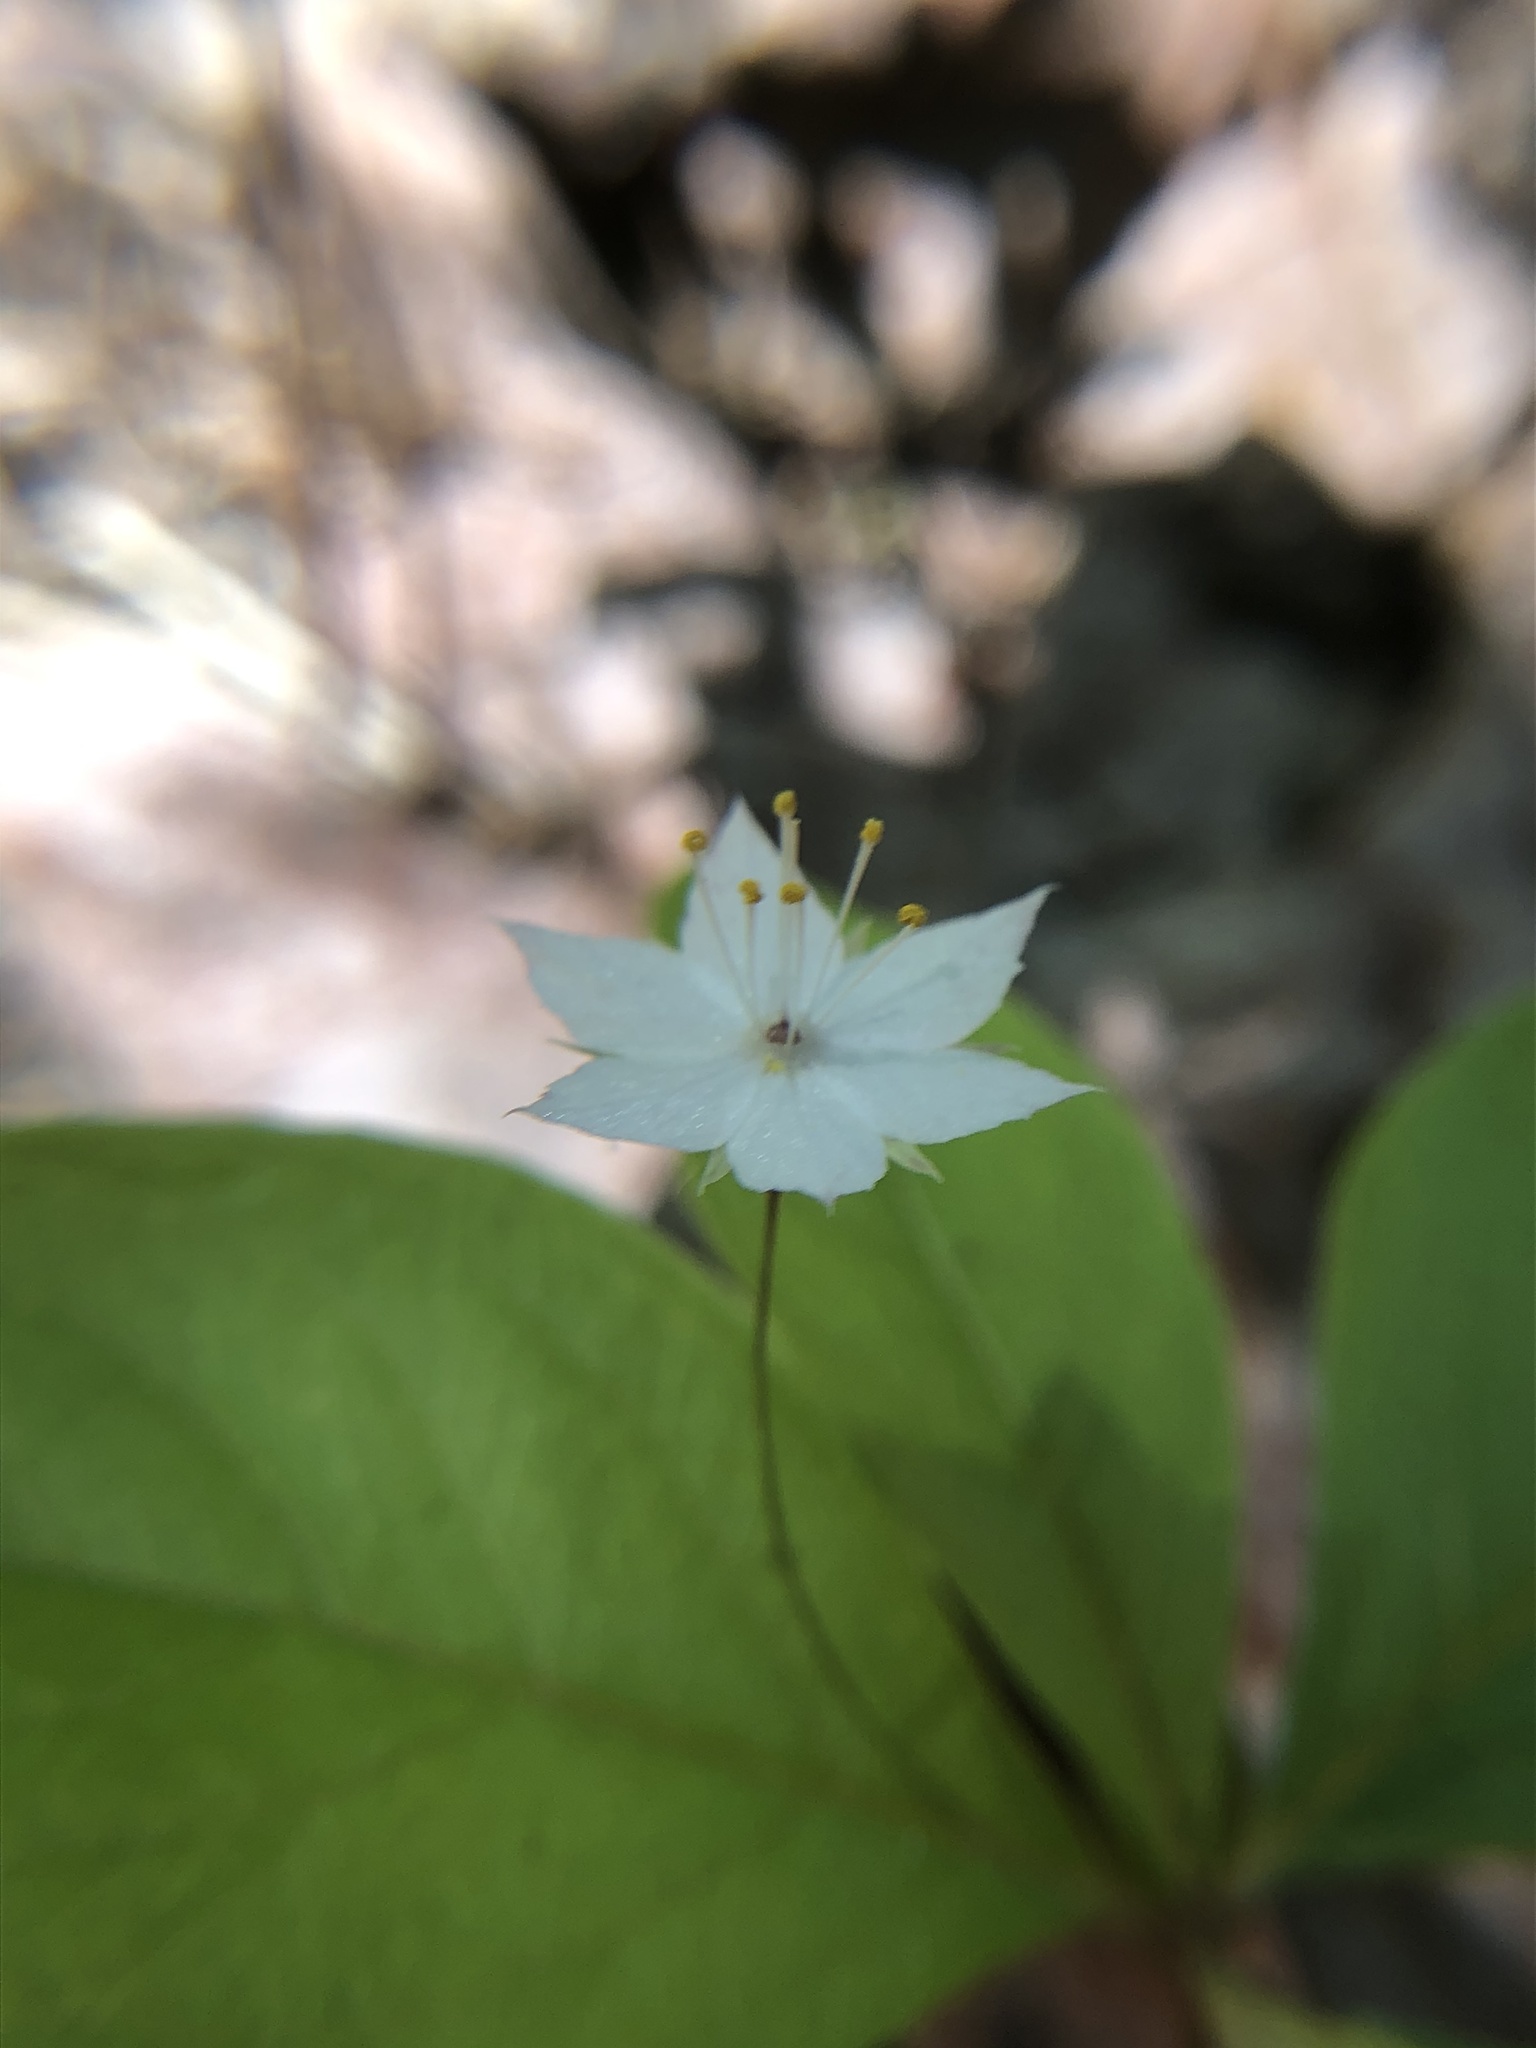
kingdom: Plantae
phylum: Tracheophyta
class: Magnoliopsida
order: Ericales
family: Primulaceae
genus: Lysimachia
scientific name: Lysimachia latifolia
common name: Pacific starflower
